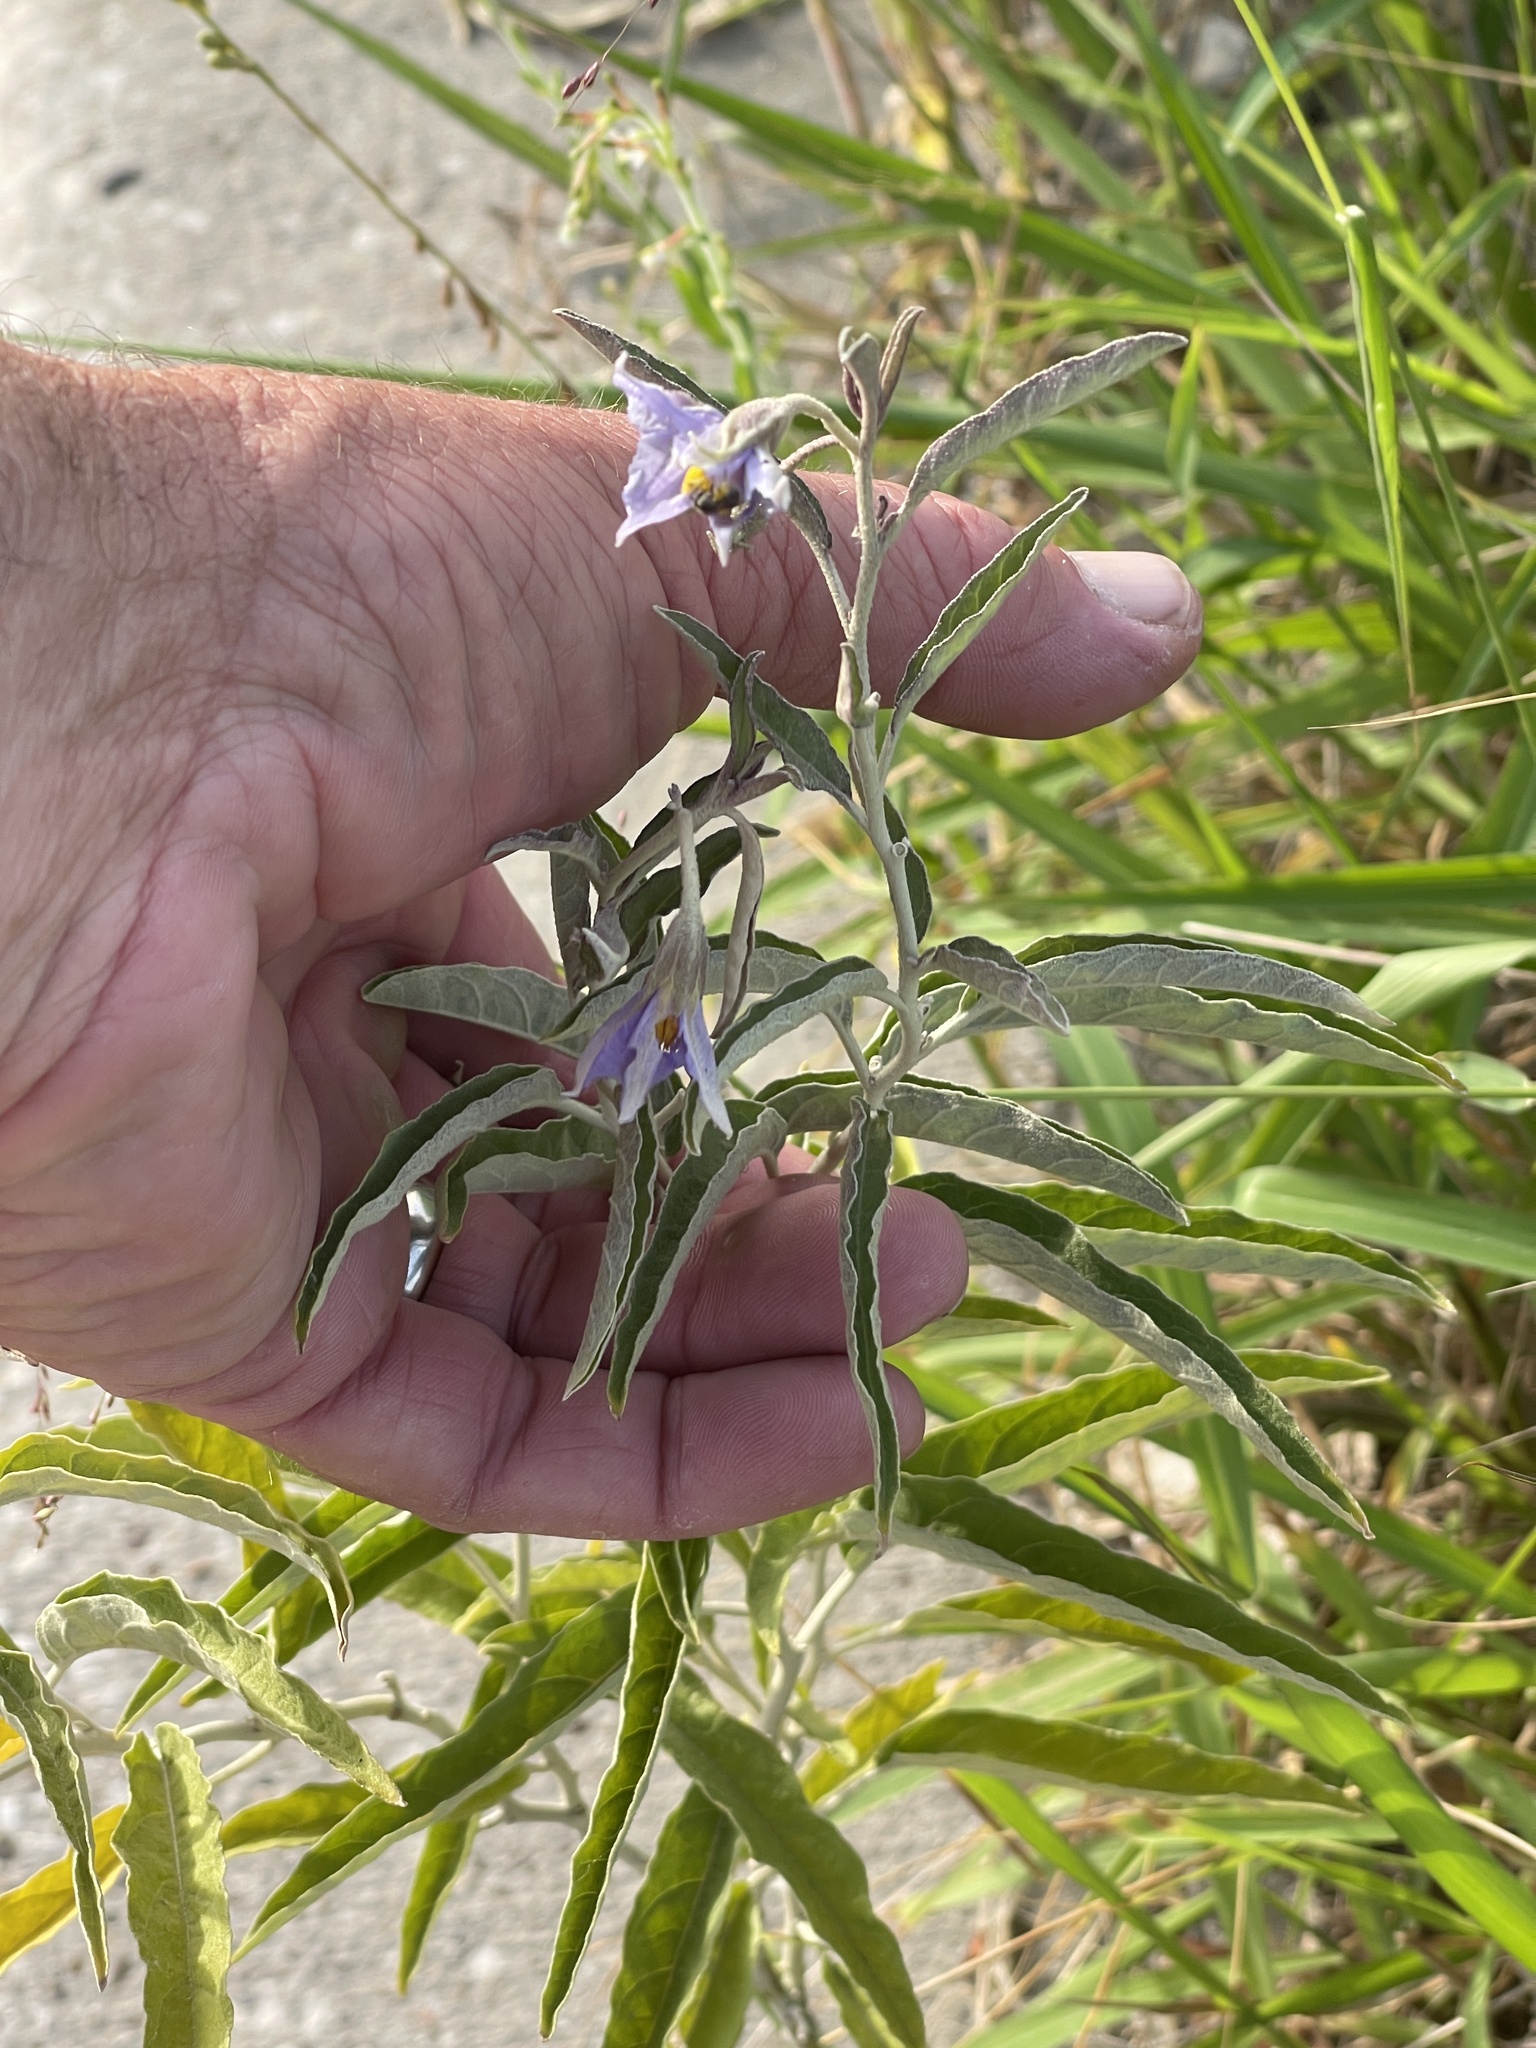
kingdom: Plantae
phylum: Tracheophyta
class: Magnoliopsida
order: Solanales
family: Solanaceae
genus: Solanum
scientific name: Solanum elaeagnifolium
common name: Silverleaf nightshade
